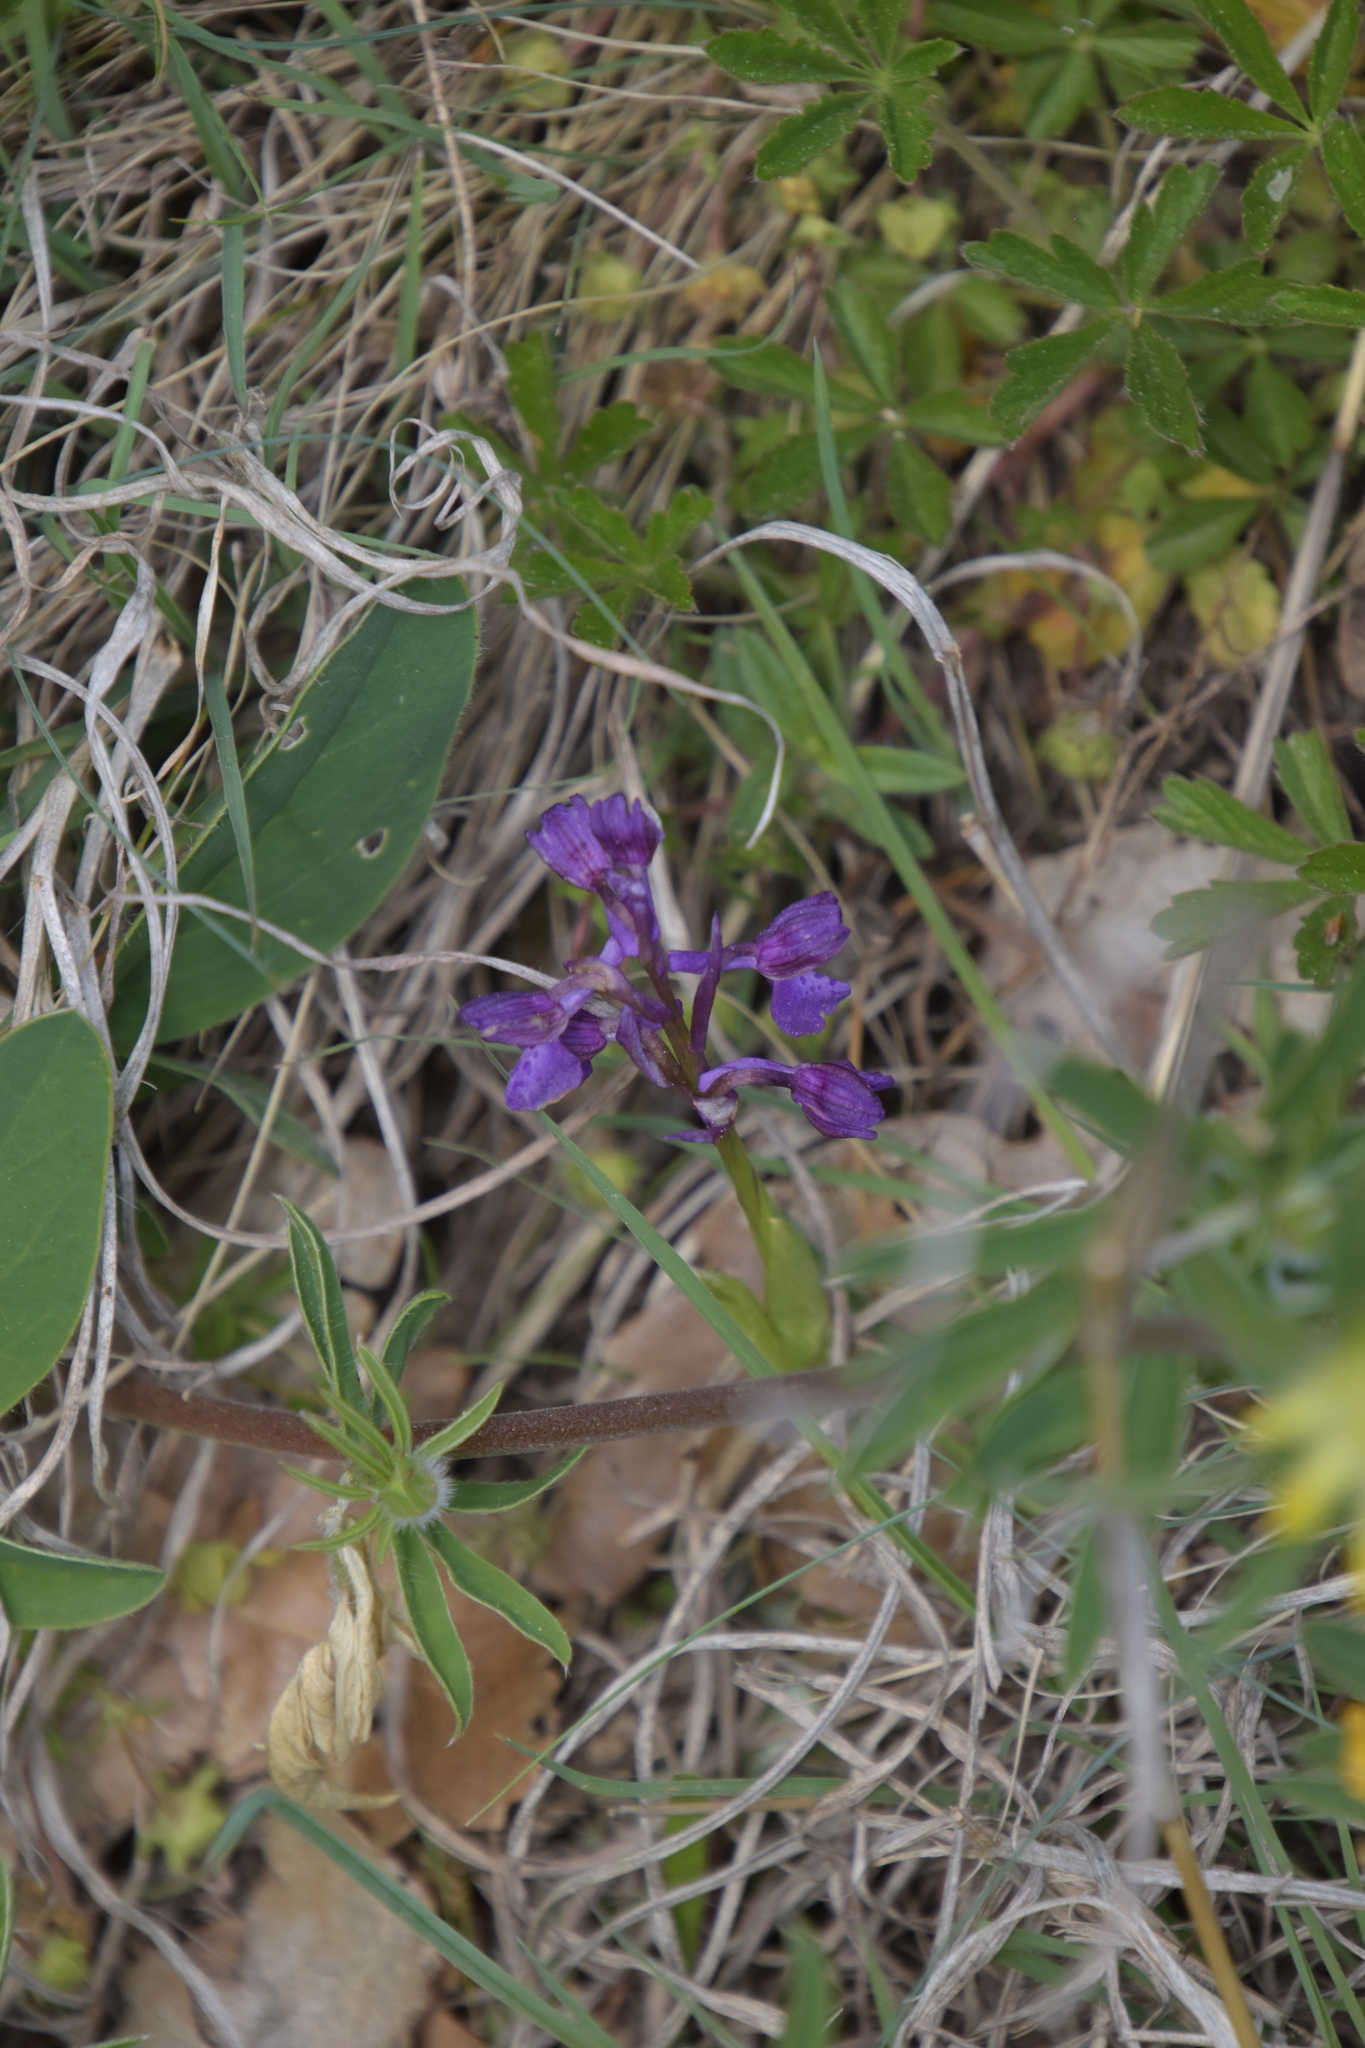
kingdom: Plantae
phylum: Tracheophyta
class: Liliopsida
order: Asparagales
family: Orchidaceae
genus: Anacamptis
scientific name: Anacamptis morio
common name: Green-winged orchid
